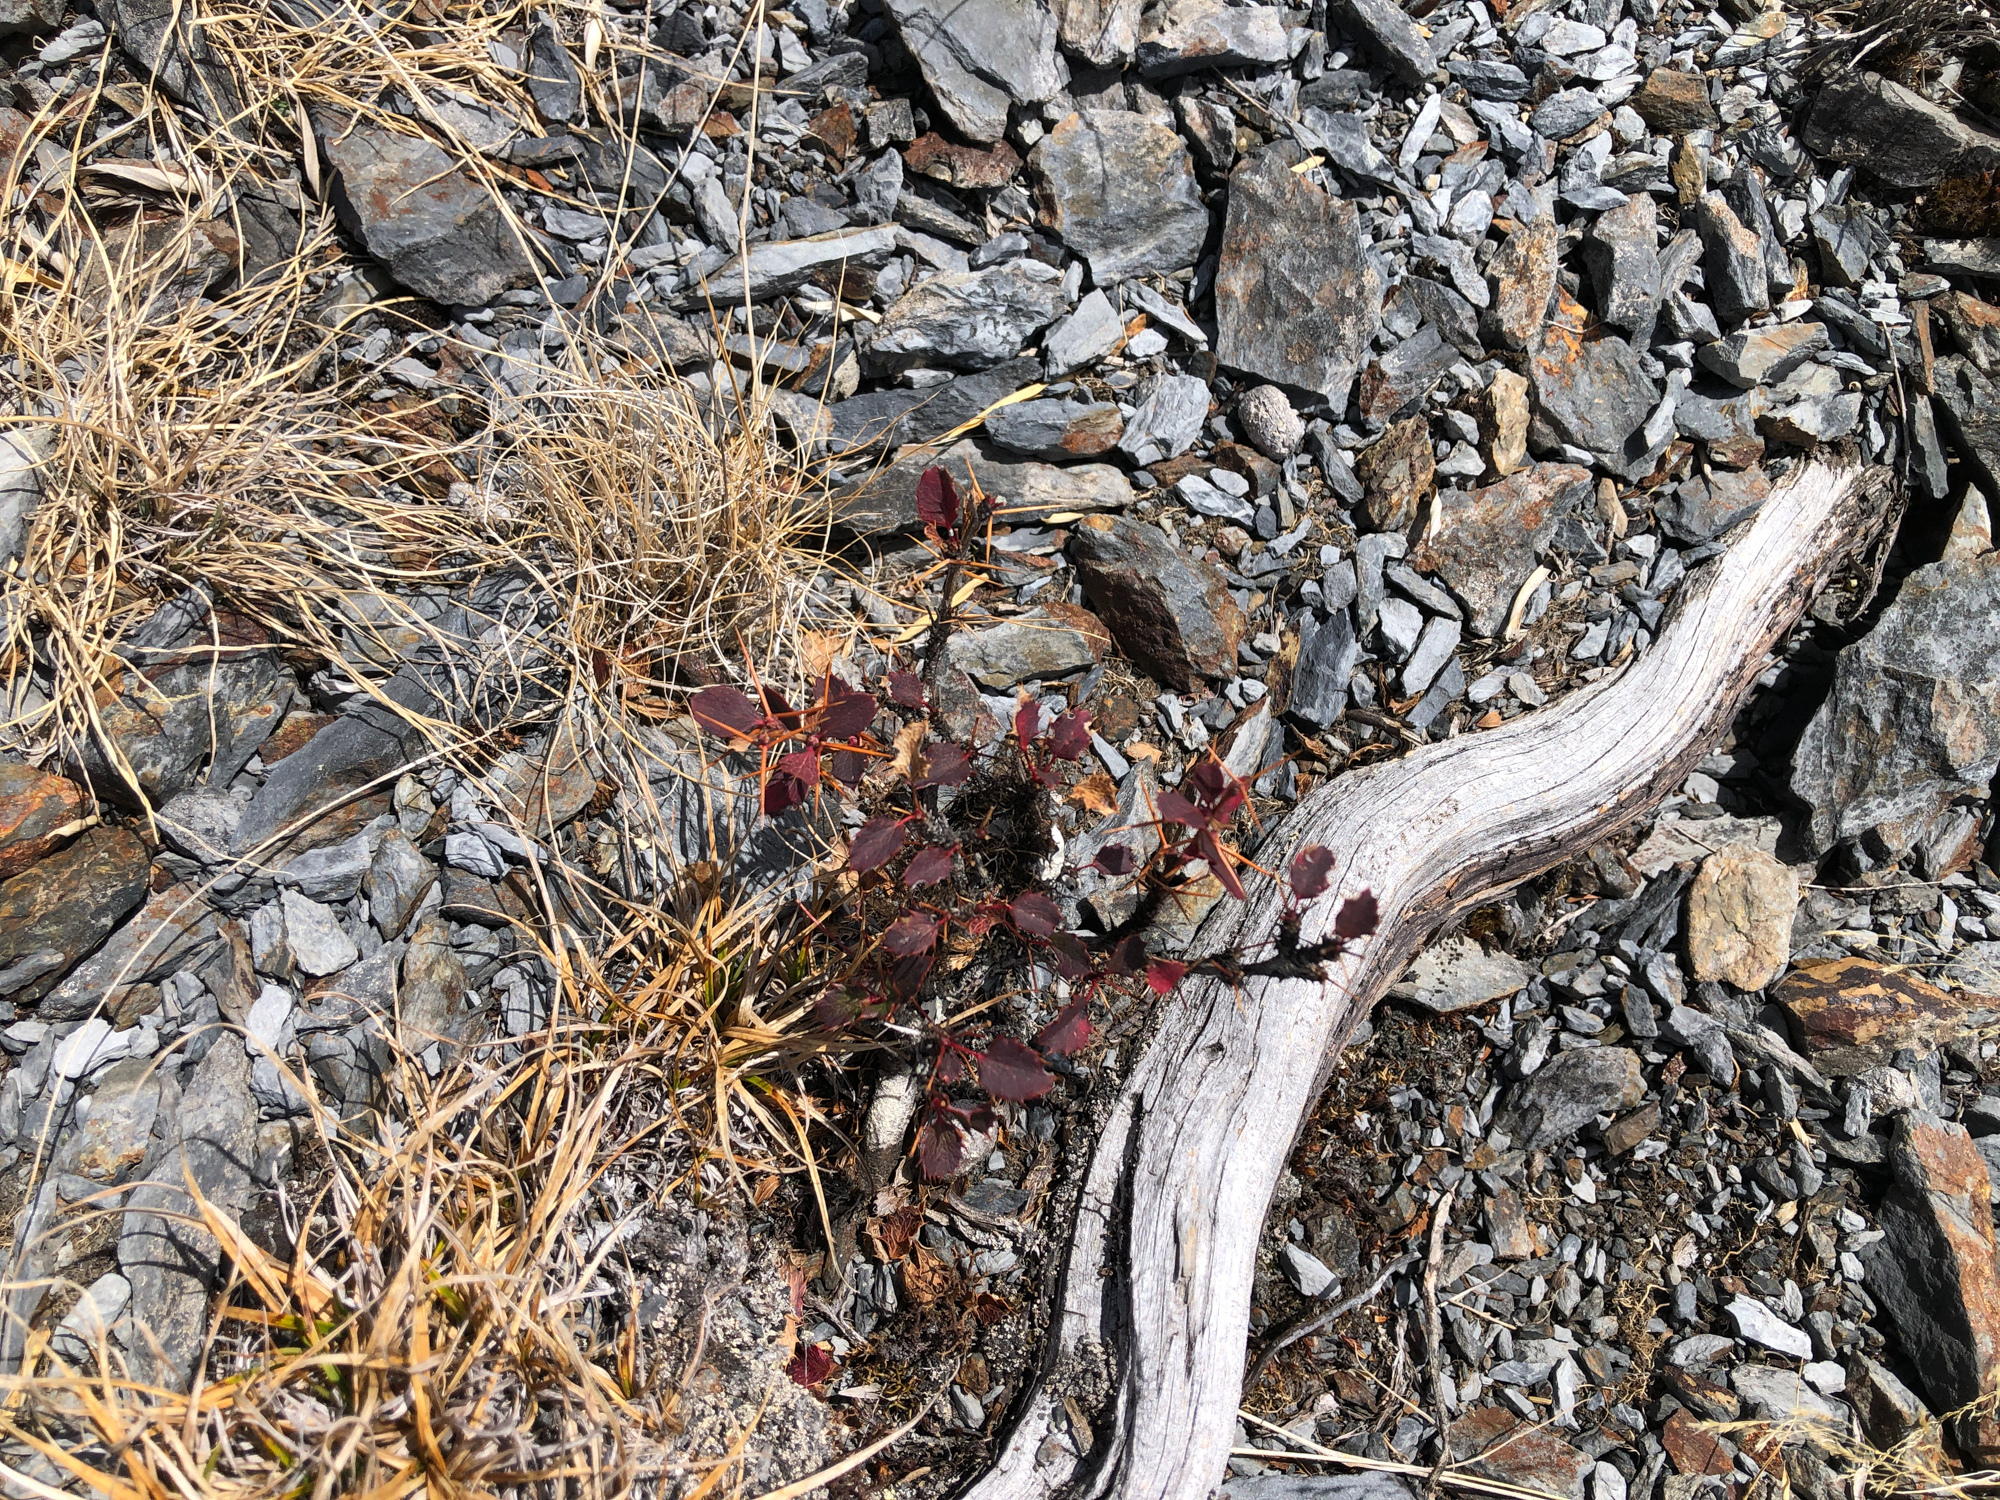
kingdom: Plantae
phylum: Tracheophyta
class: Magnoliopsida
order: Ranunculales
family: Berberidaceae
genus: Berberis
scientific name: Berberis morrisonensis
